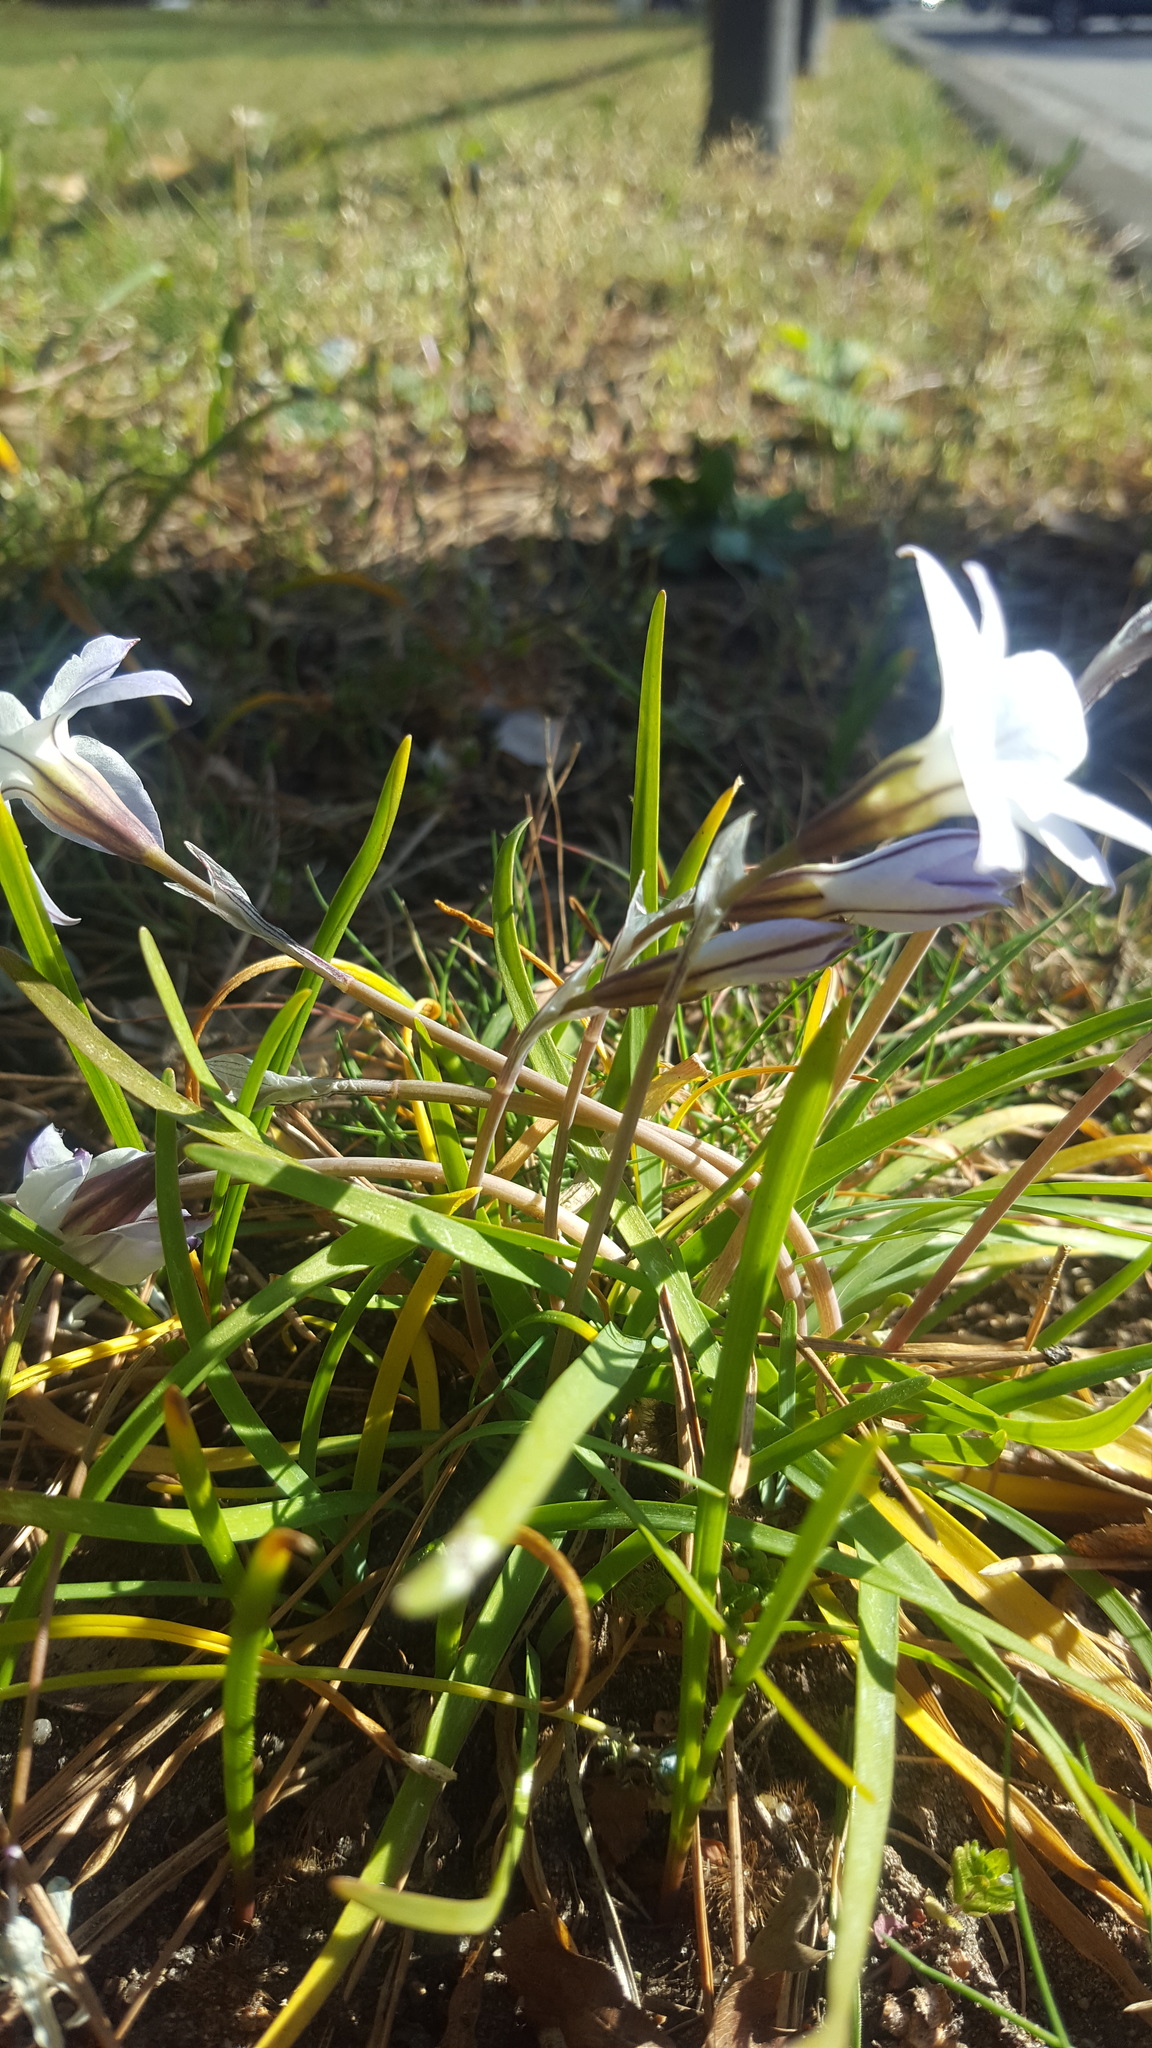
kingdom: Plantae
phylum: Tracheophyta
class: Liliopsida
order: Asparagales
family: Amaryllidaceae
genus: Ipheion
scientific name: Ipheion uniflorum
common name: Spring starflower
